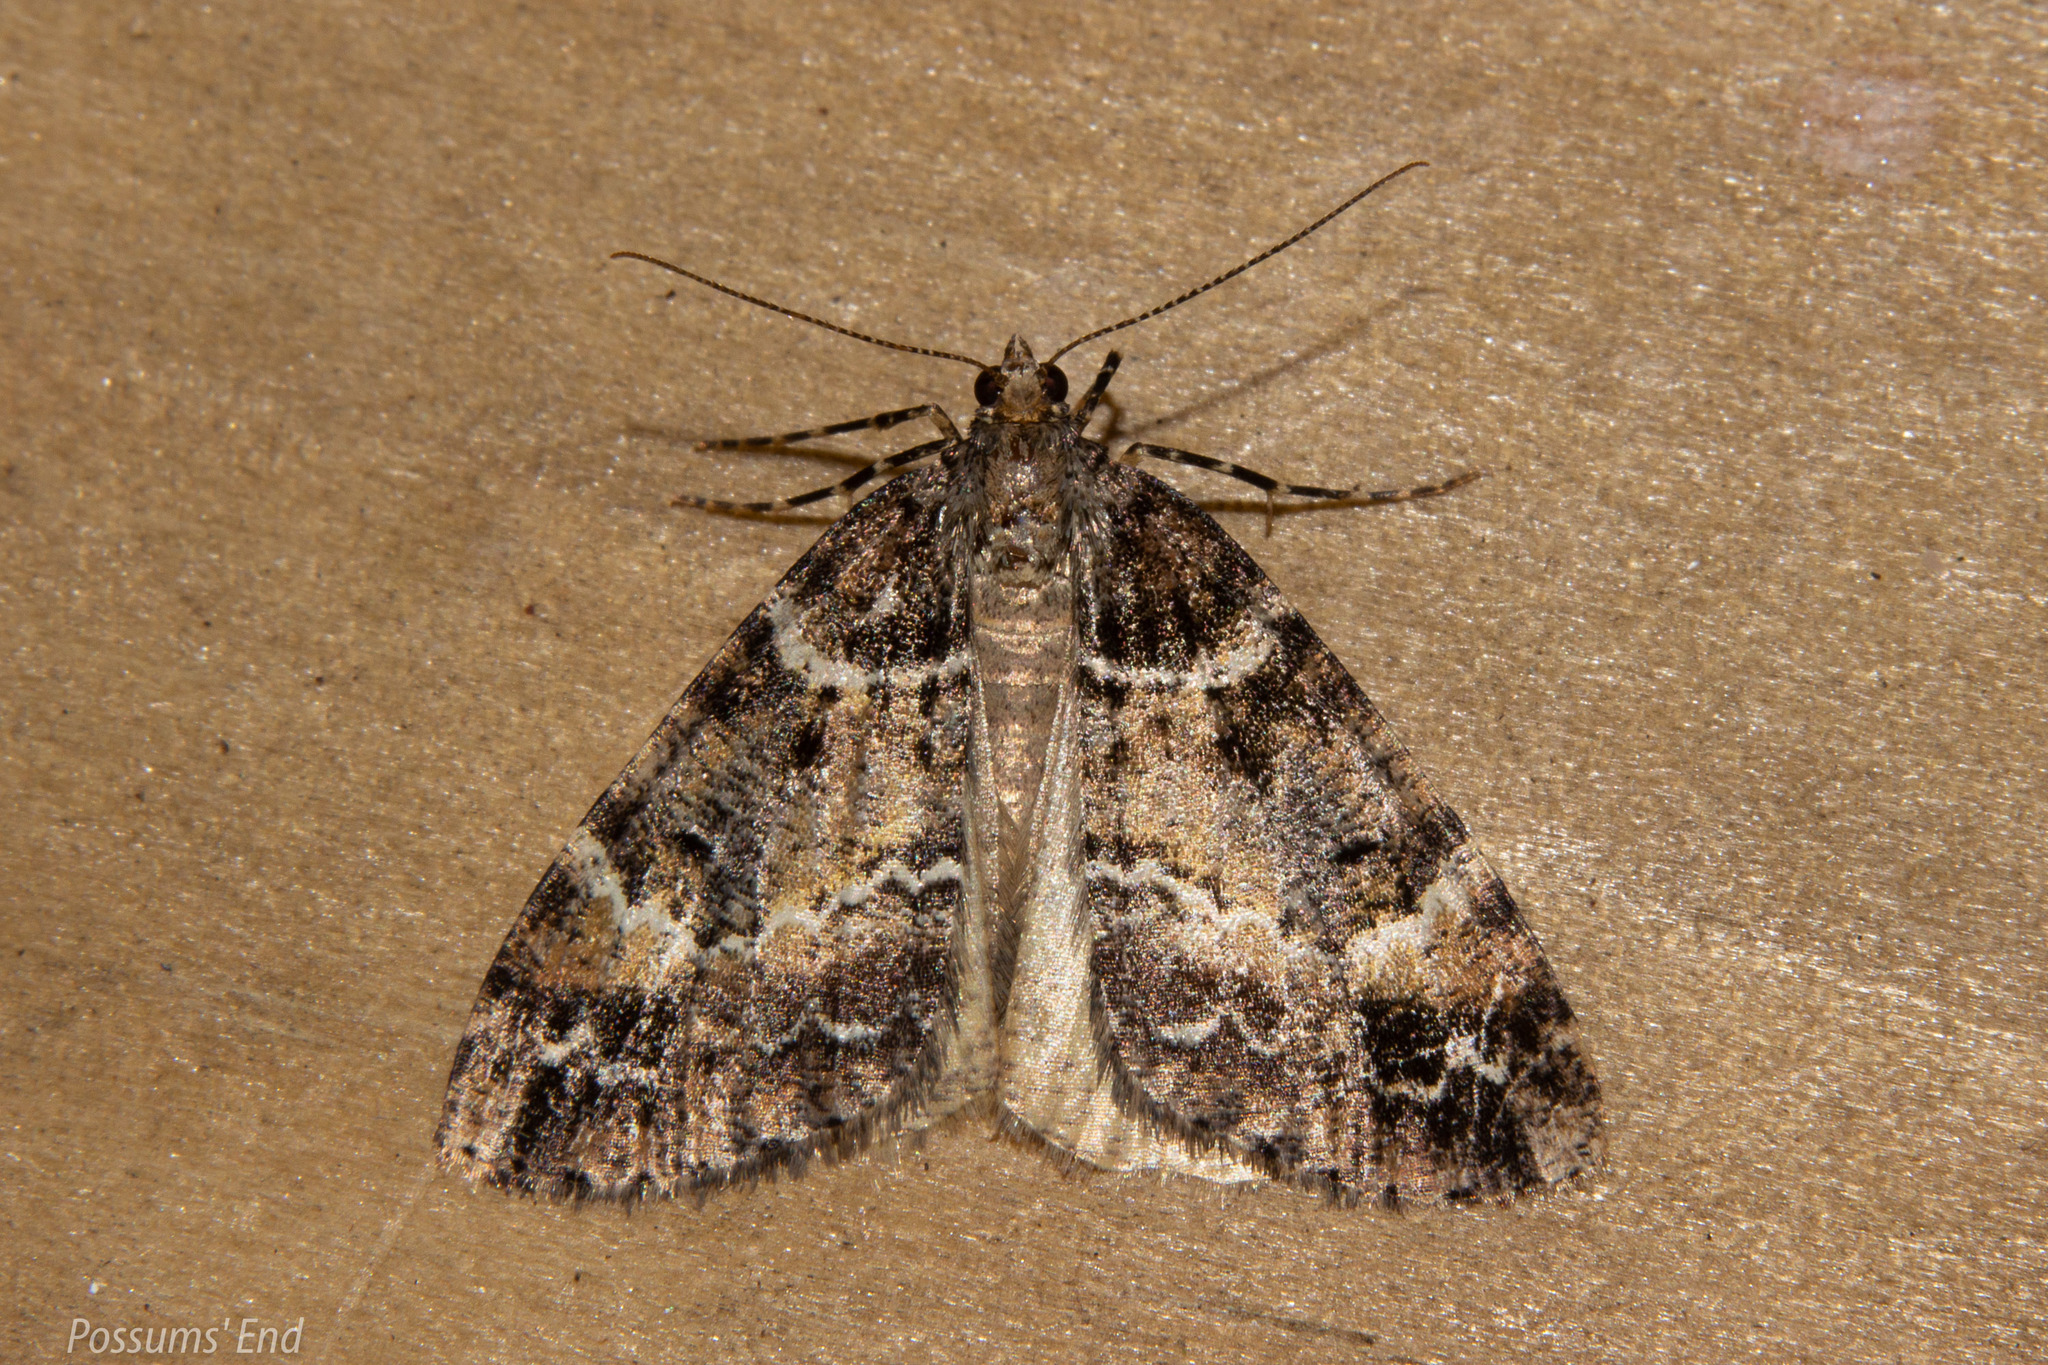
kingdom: Animalia
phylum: Arthropoda
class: Insecta
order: Lepidoptera
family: Geometridae
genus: Pseudocoremia
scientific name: Pseudocoremia productata
